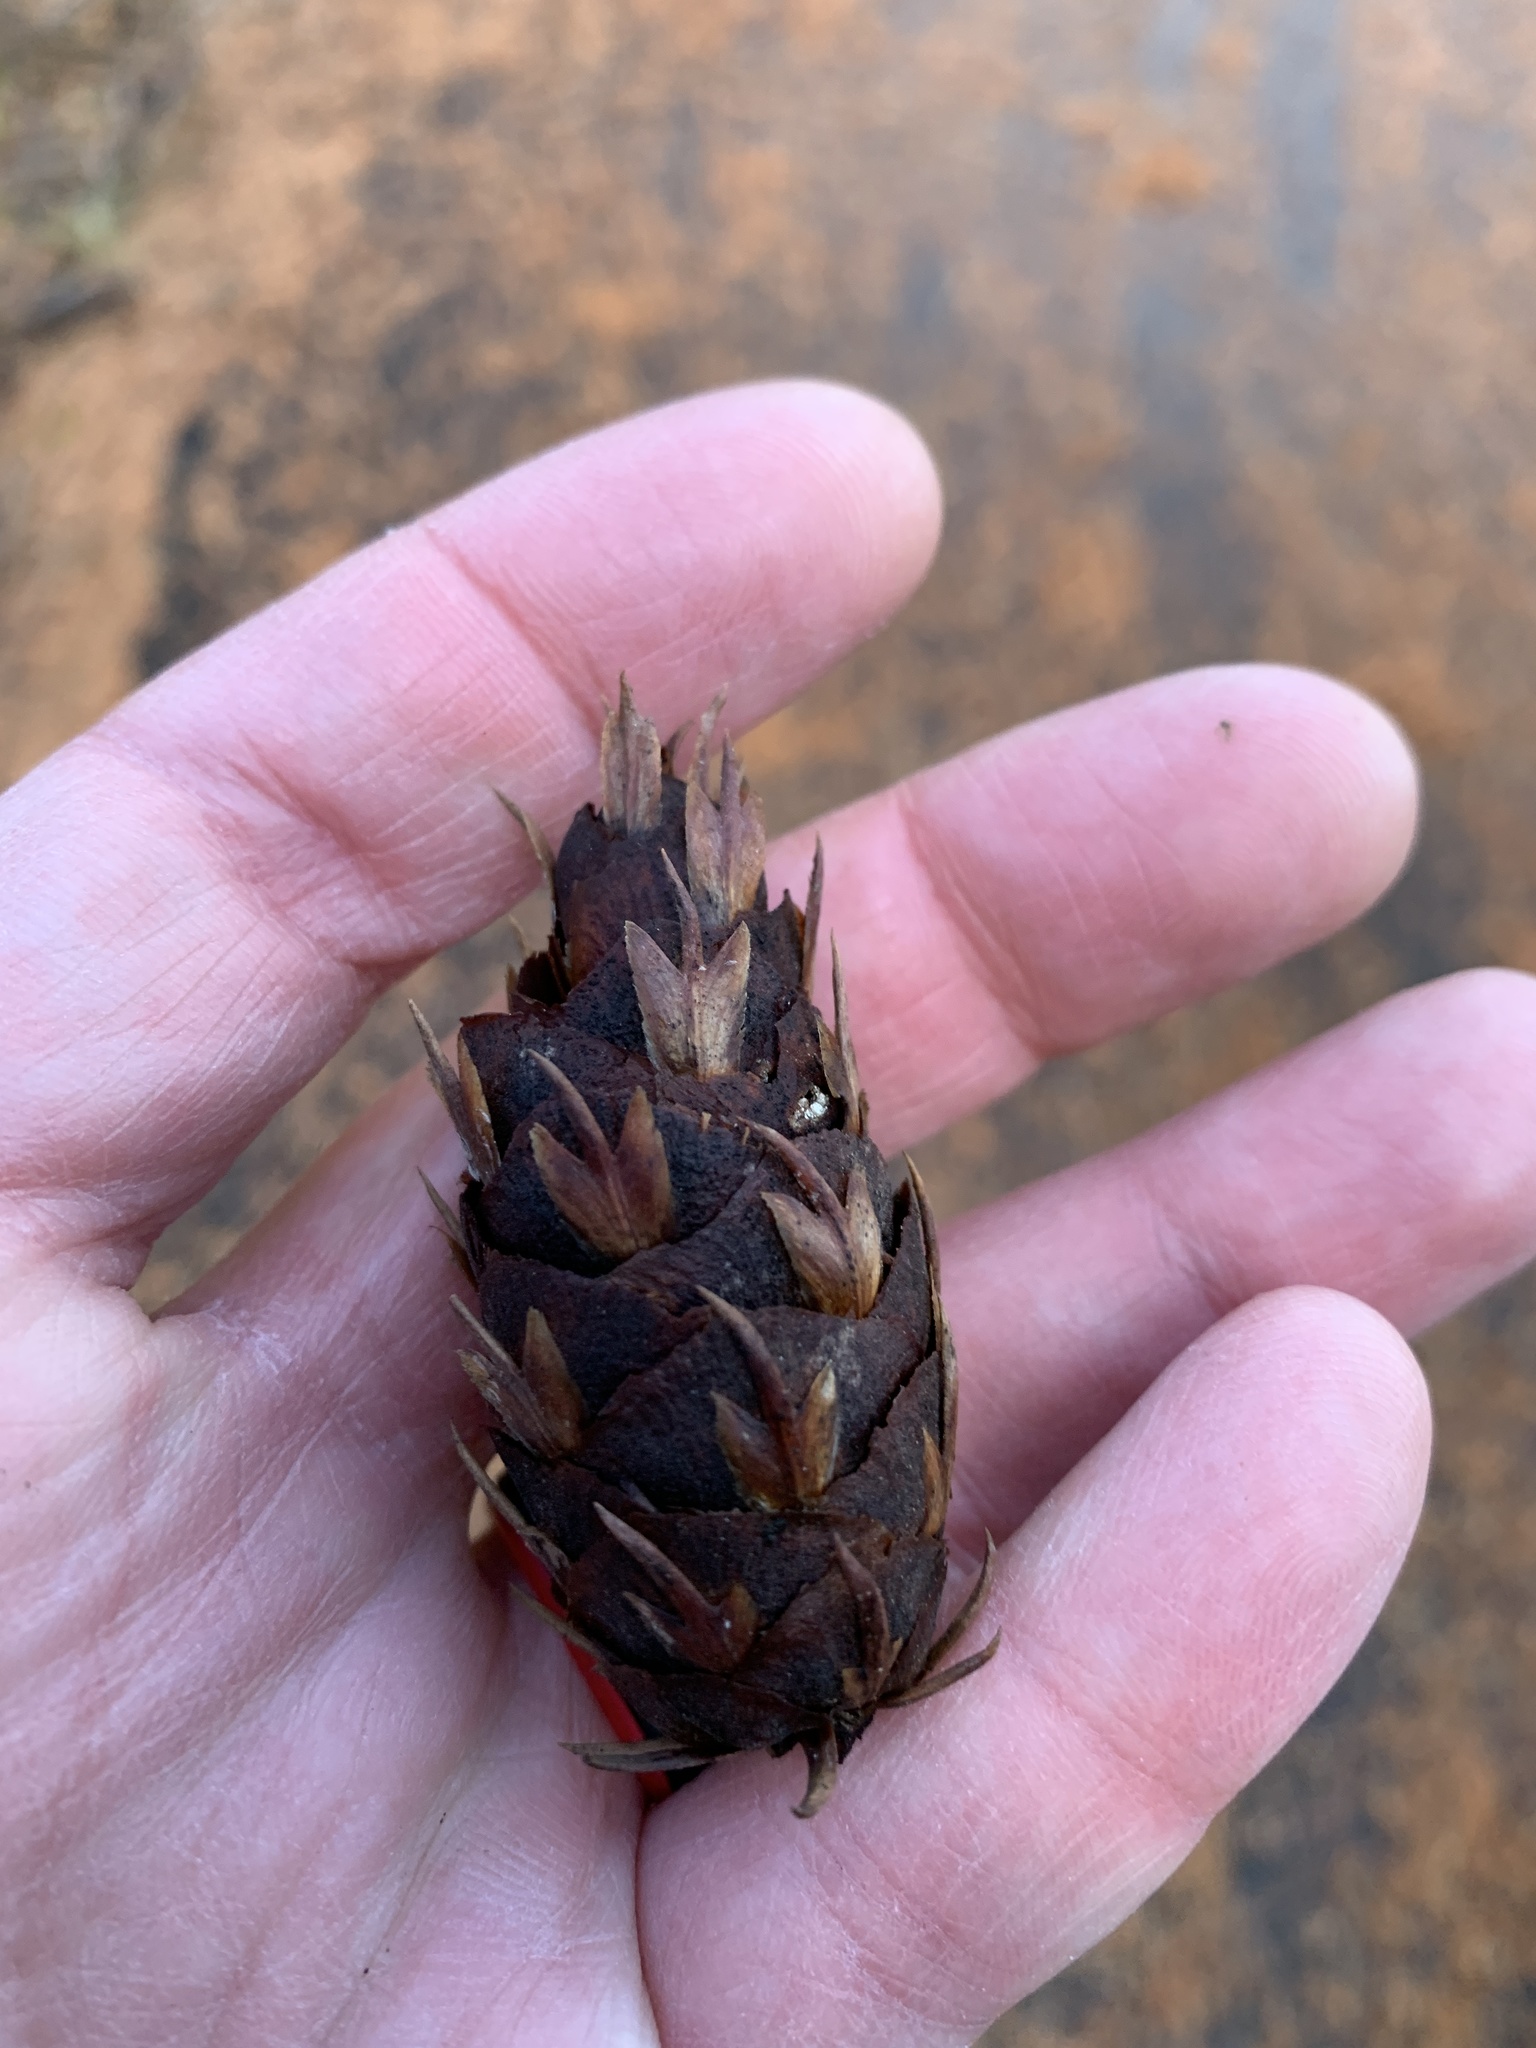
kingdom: Plantae
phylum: Tracheophyta
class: Pinopsida
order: Pinales
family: Pinaceae
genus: Pseudotsuga
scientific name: Pseudotsuga menziesii
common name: Douglas fir
